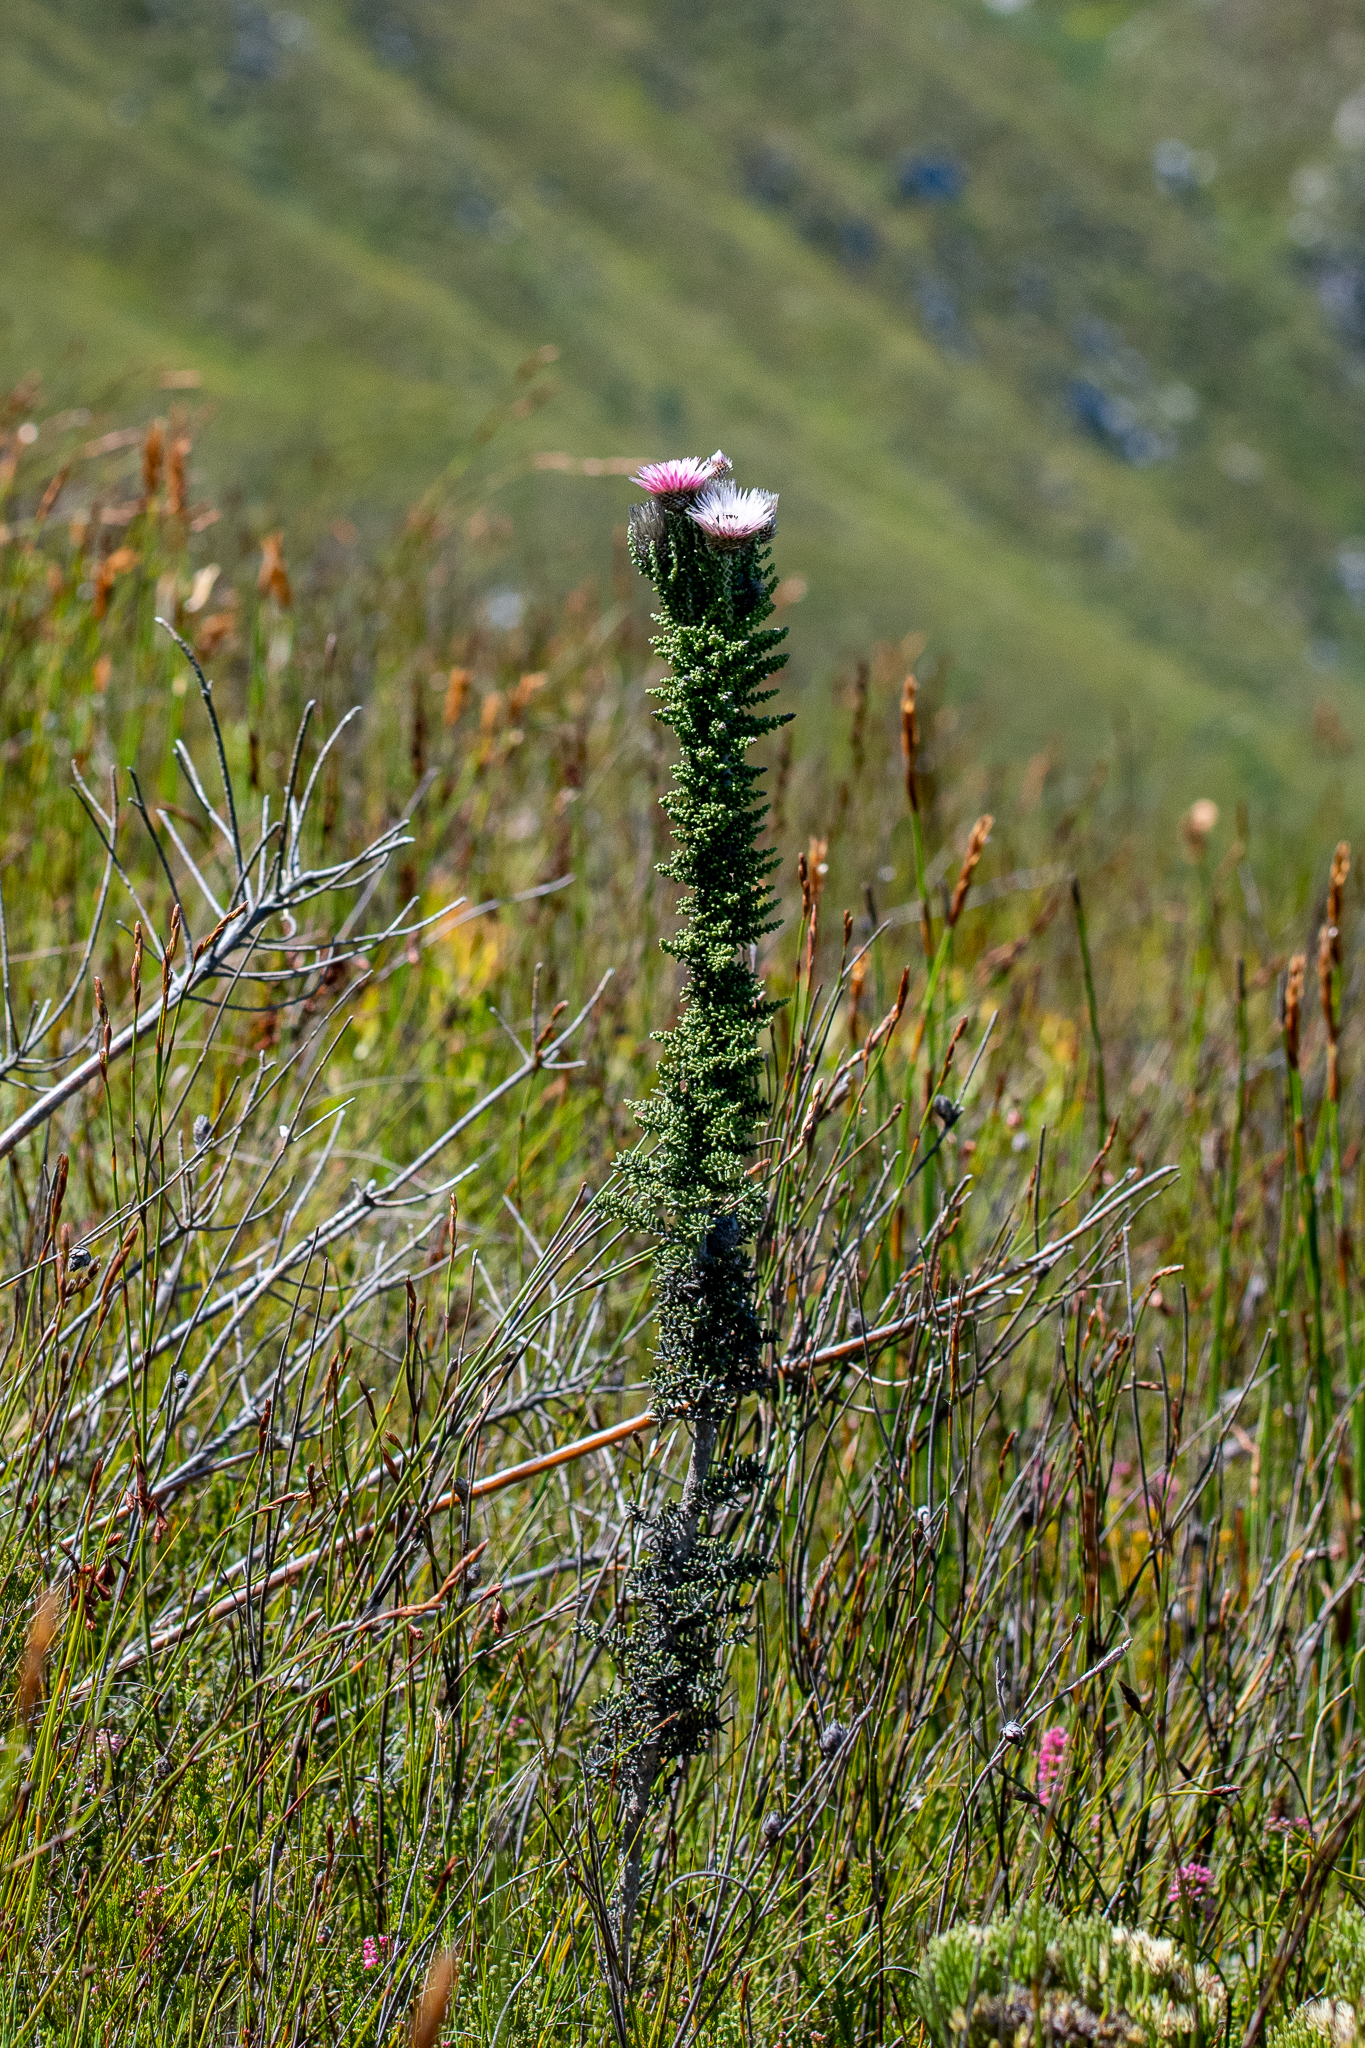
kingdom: Plantae
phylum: Tracheophyta
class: Magnoliopsida
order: Asterales
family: Asteraceae
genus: Phaenocoma
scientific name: Phaenocoma prolifera
